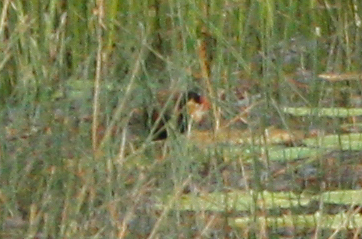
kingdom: Animalia
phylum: Chordata
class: Aves
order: Charadriiformes
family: Jacanidae
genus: Irediparra
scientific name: Irediparra gallinacea
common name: Comb-crested jacana
